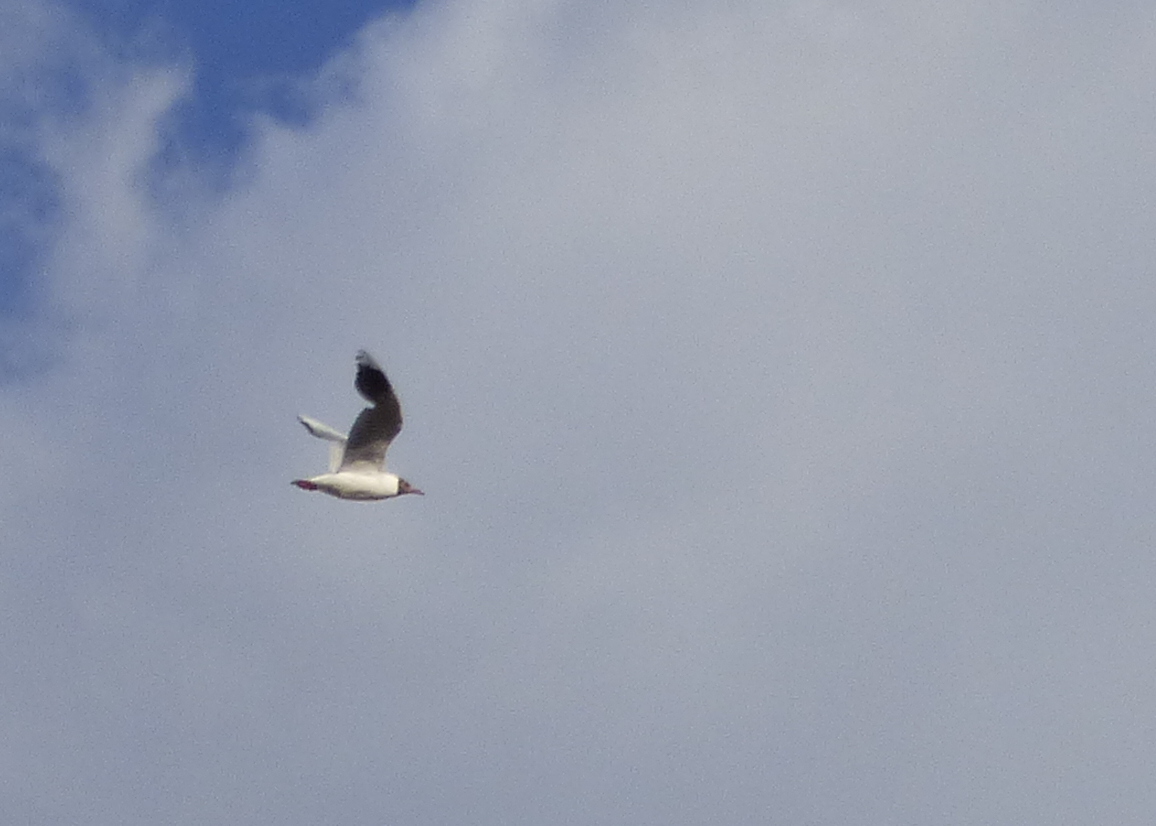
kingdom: Animalia
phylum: Chordata
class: Aves
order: Charadriiformes
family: Laridae
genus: Chroicocephalus
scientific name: Chroicocephalus maculipennis
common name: Brown-hooded gull
